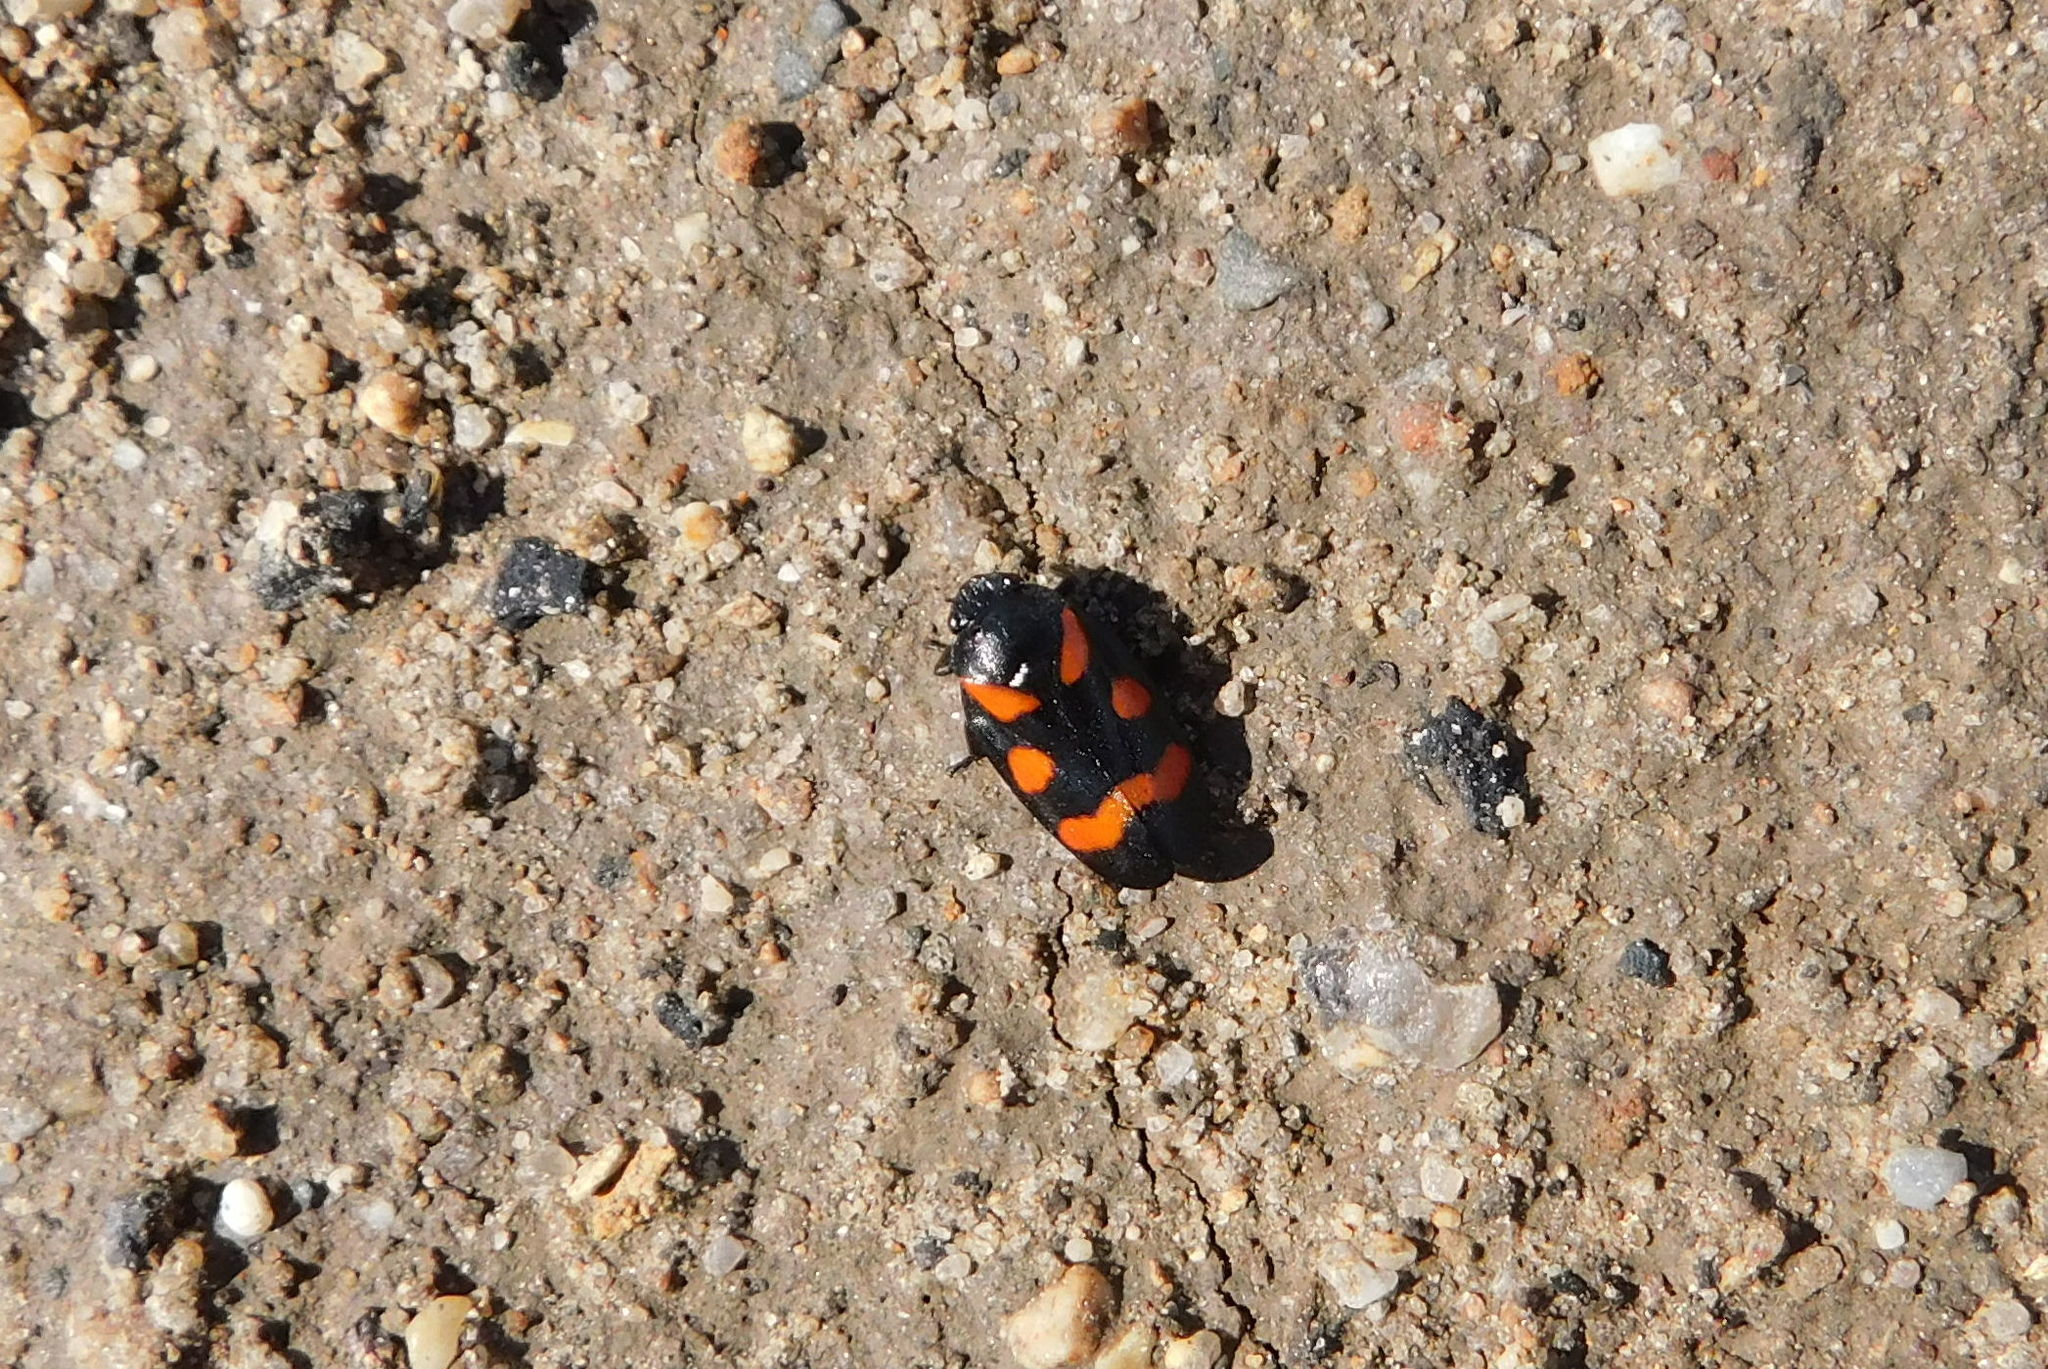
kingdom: Animalia
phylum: Arthropoda
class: Insecta
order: Hemiptera
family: Cercopidae
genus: Cercopis
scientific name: Cercopis sanguinolenta
